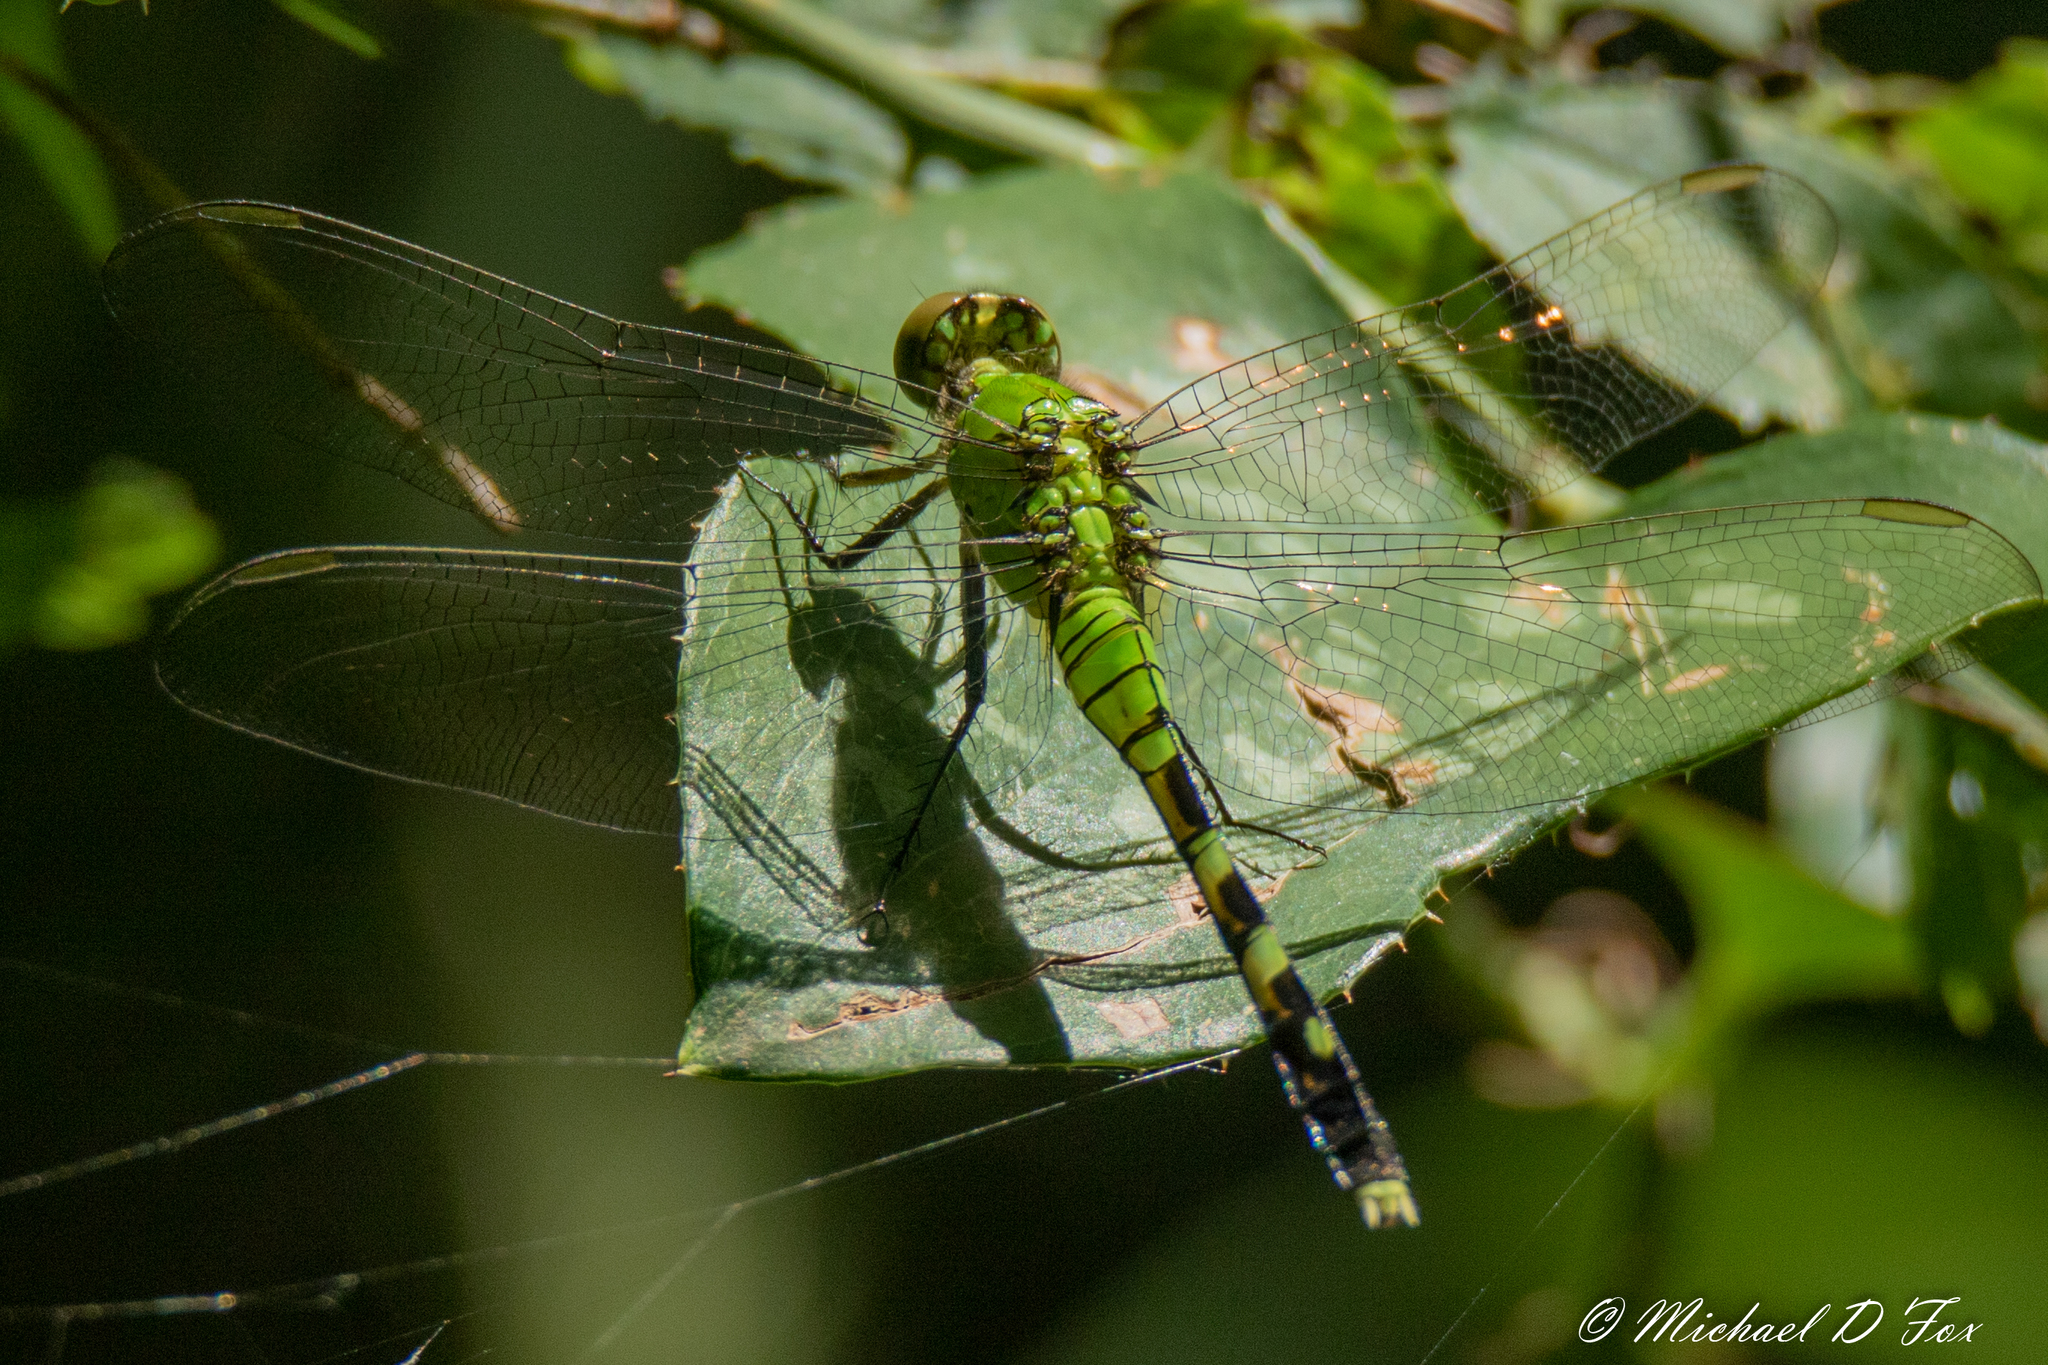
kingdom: Animalia
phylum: Arthropoda
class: Insecta
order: Odonata
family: Libellulidae
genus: Erythemis
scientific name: Erythemis simplicicollis
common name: Eastern pondhawk
